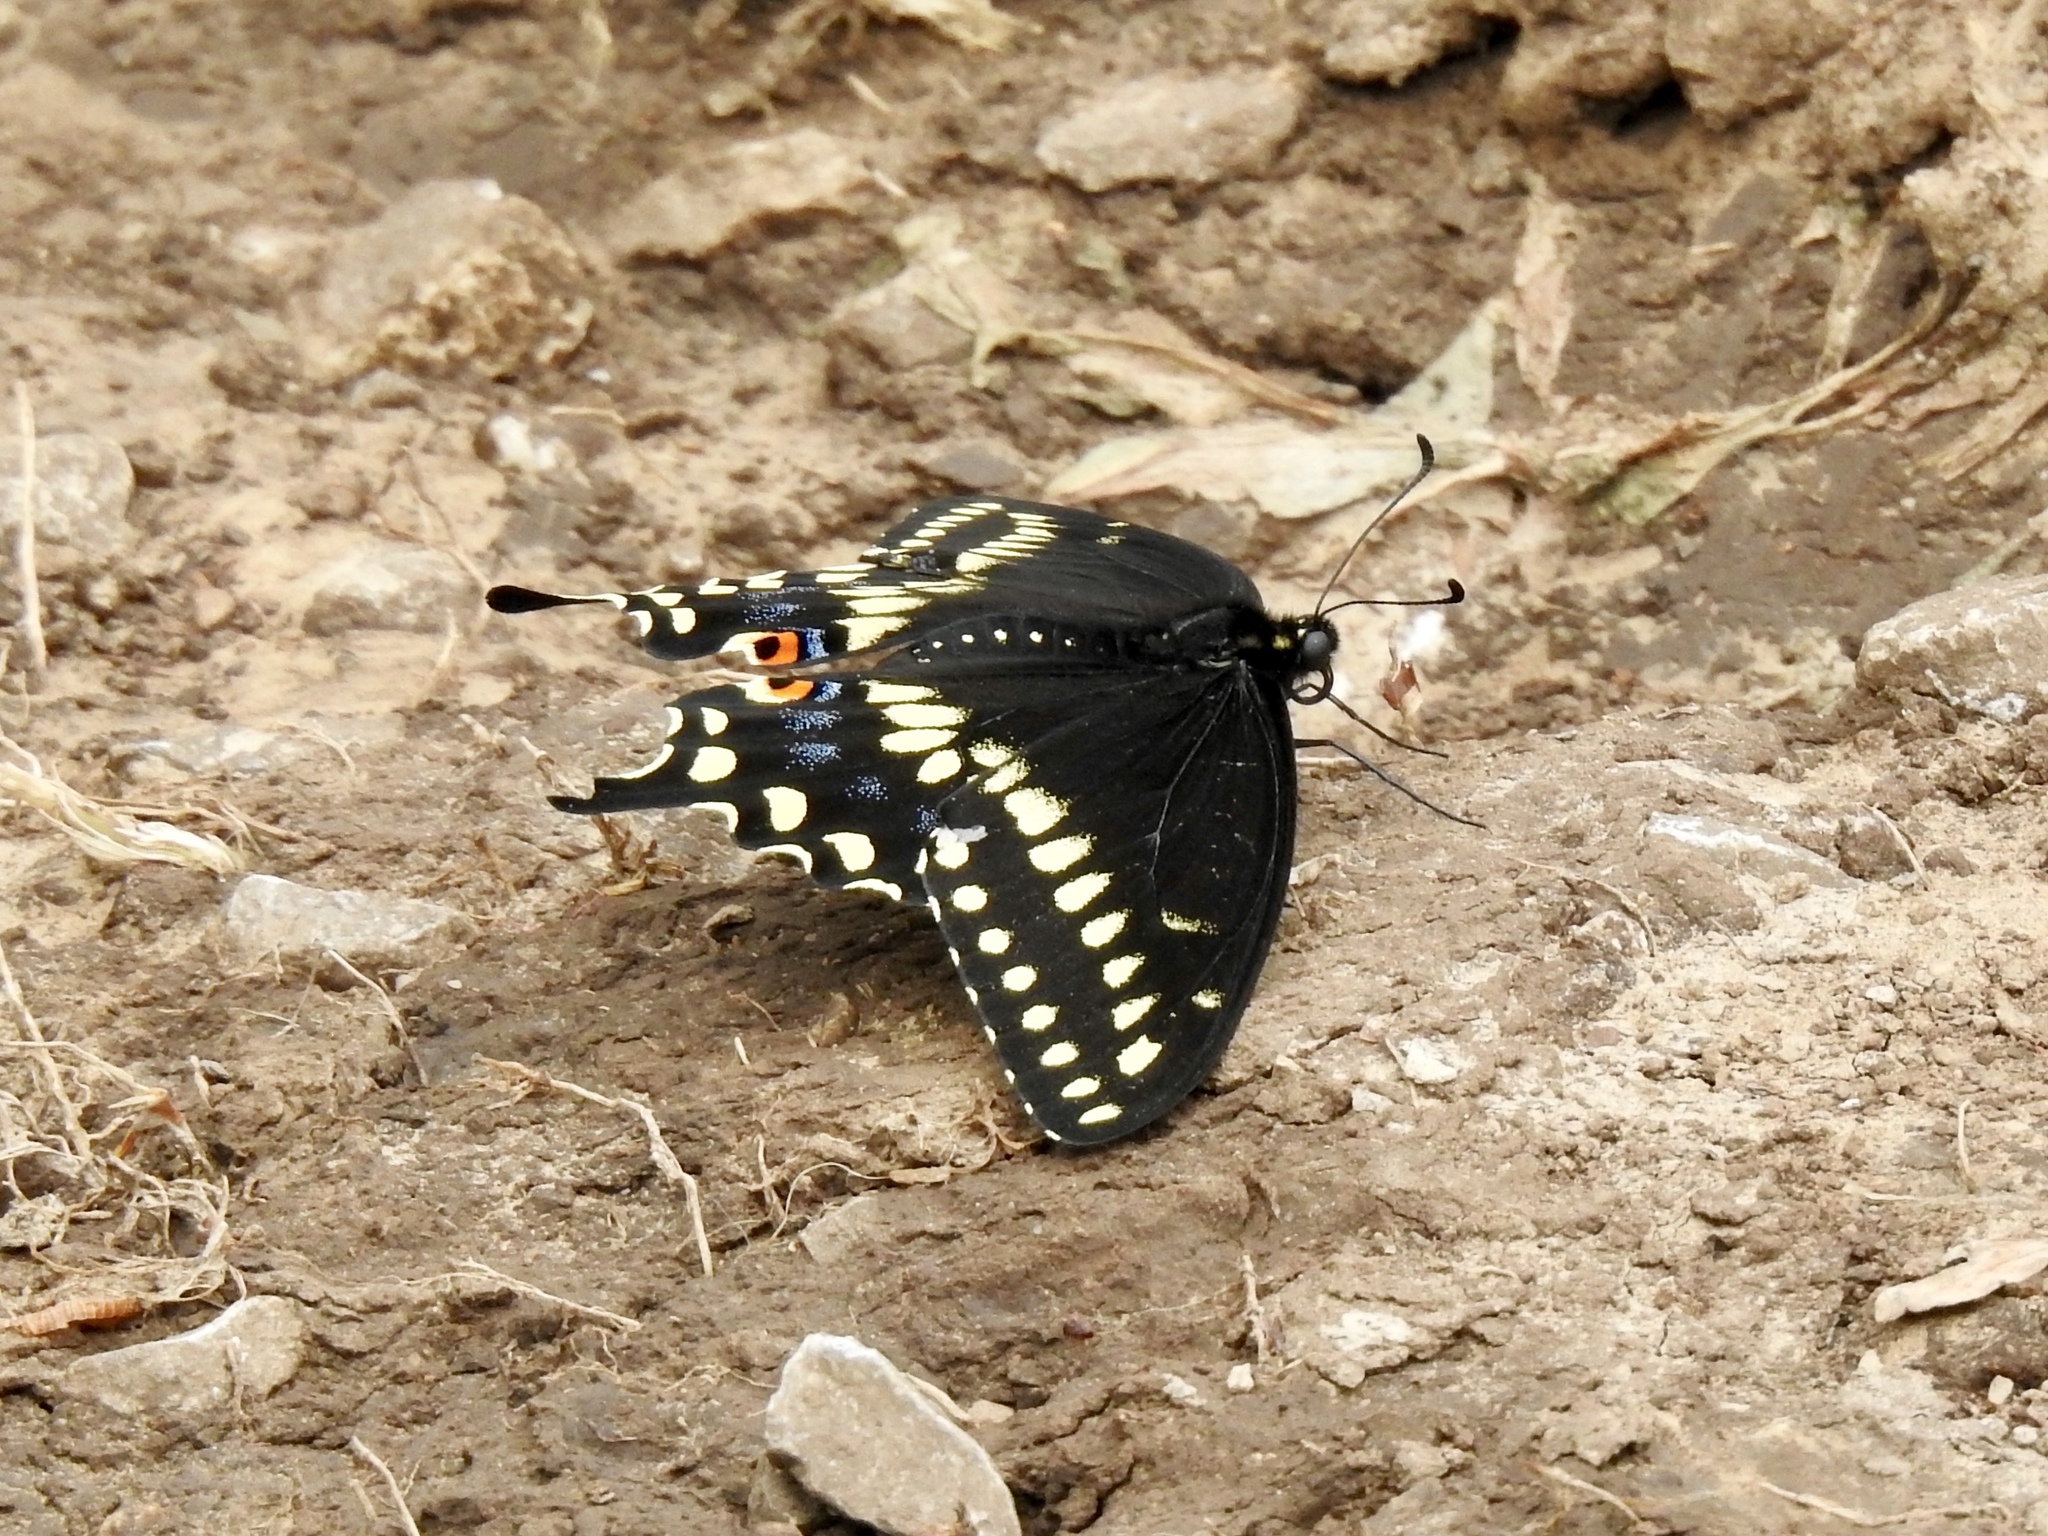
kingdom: Animalia
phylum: Arthropoda
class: Insecta
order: Lepidoptera
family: Papilionidae
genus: Papilio
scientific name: Papilio polyxenes
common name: Black swallowtail
